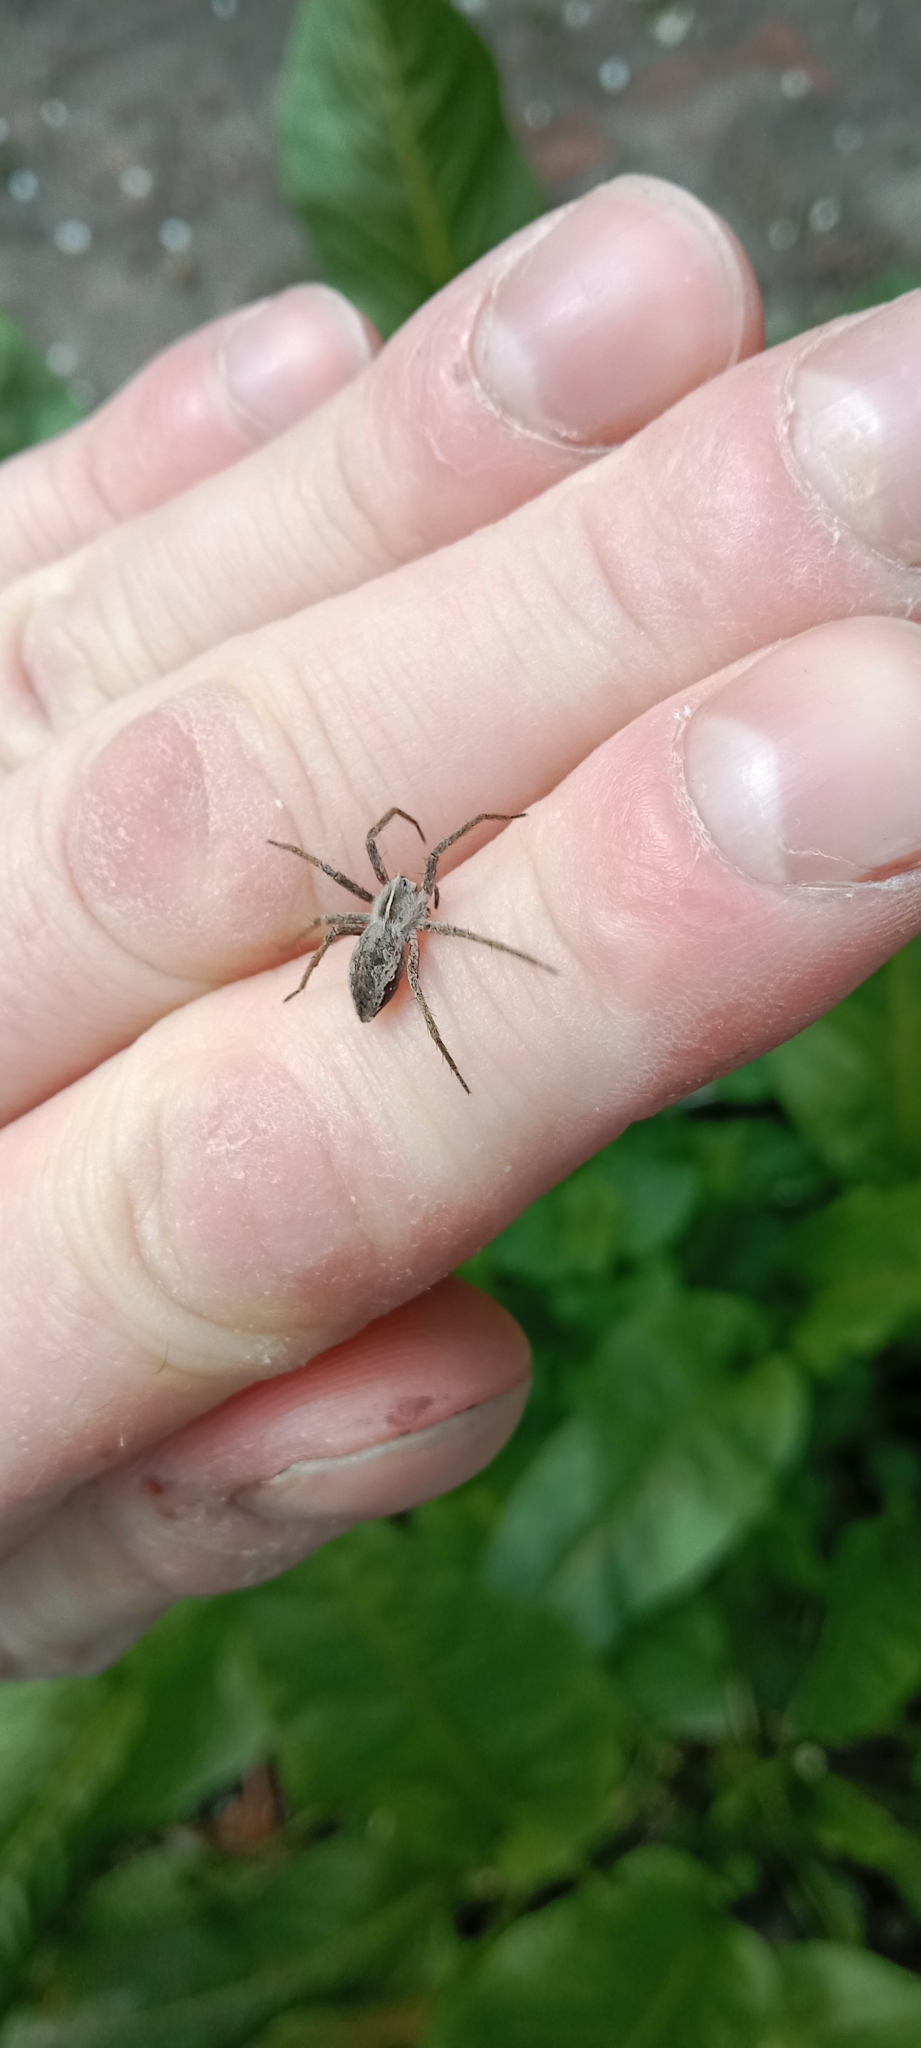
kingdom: Animalia
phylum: Arthropoda
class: Arachnida
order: Araneae
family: Pisauridae
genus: Pisaura
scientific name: Pisaura
